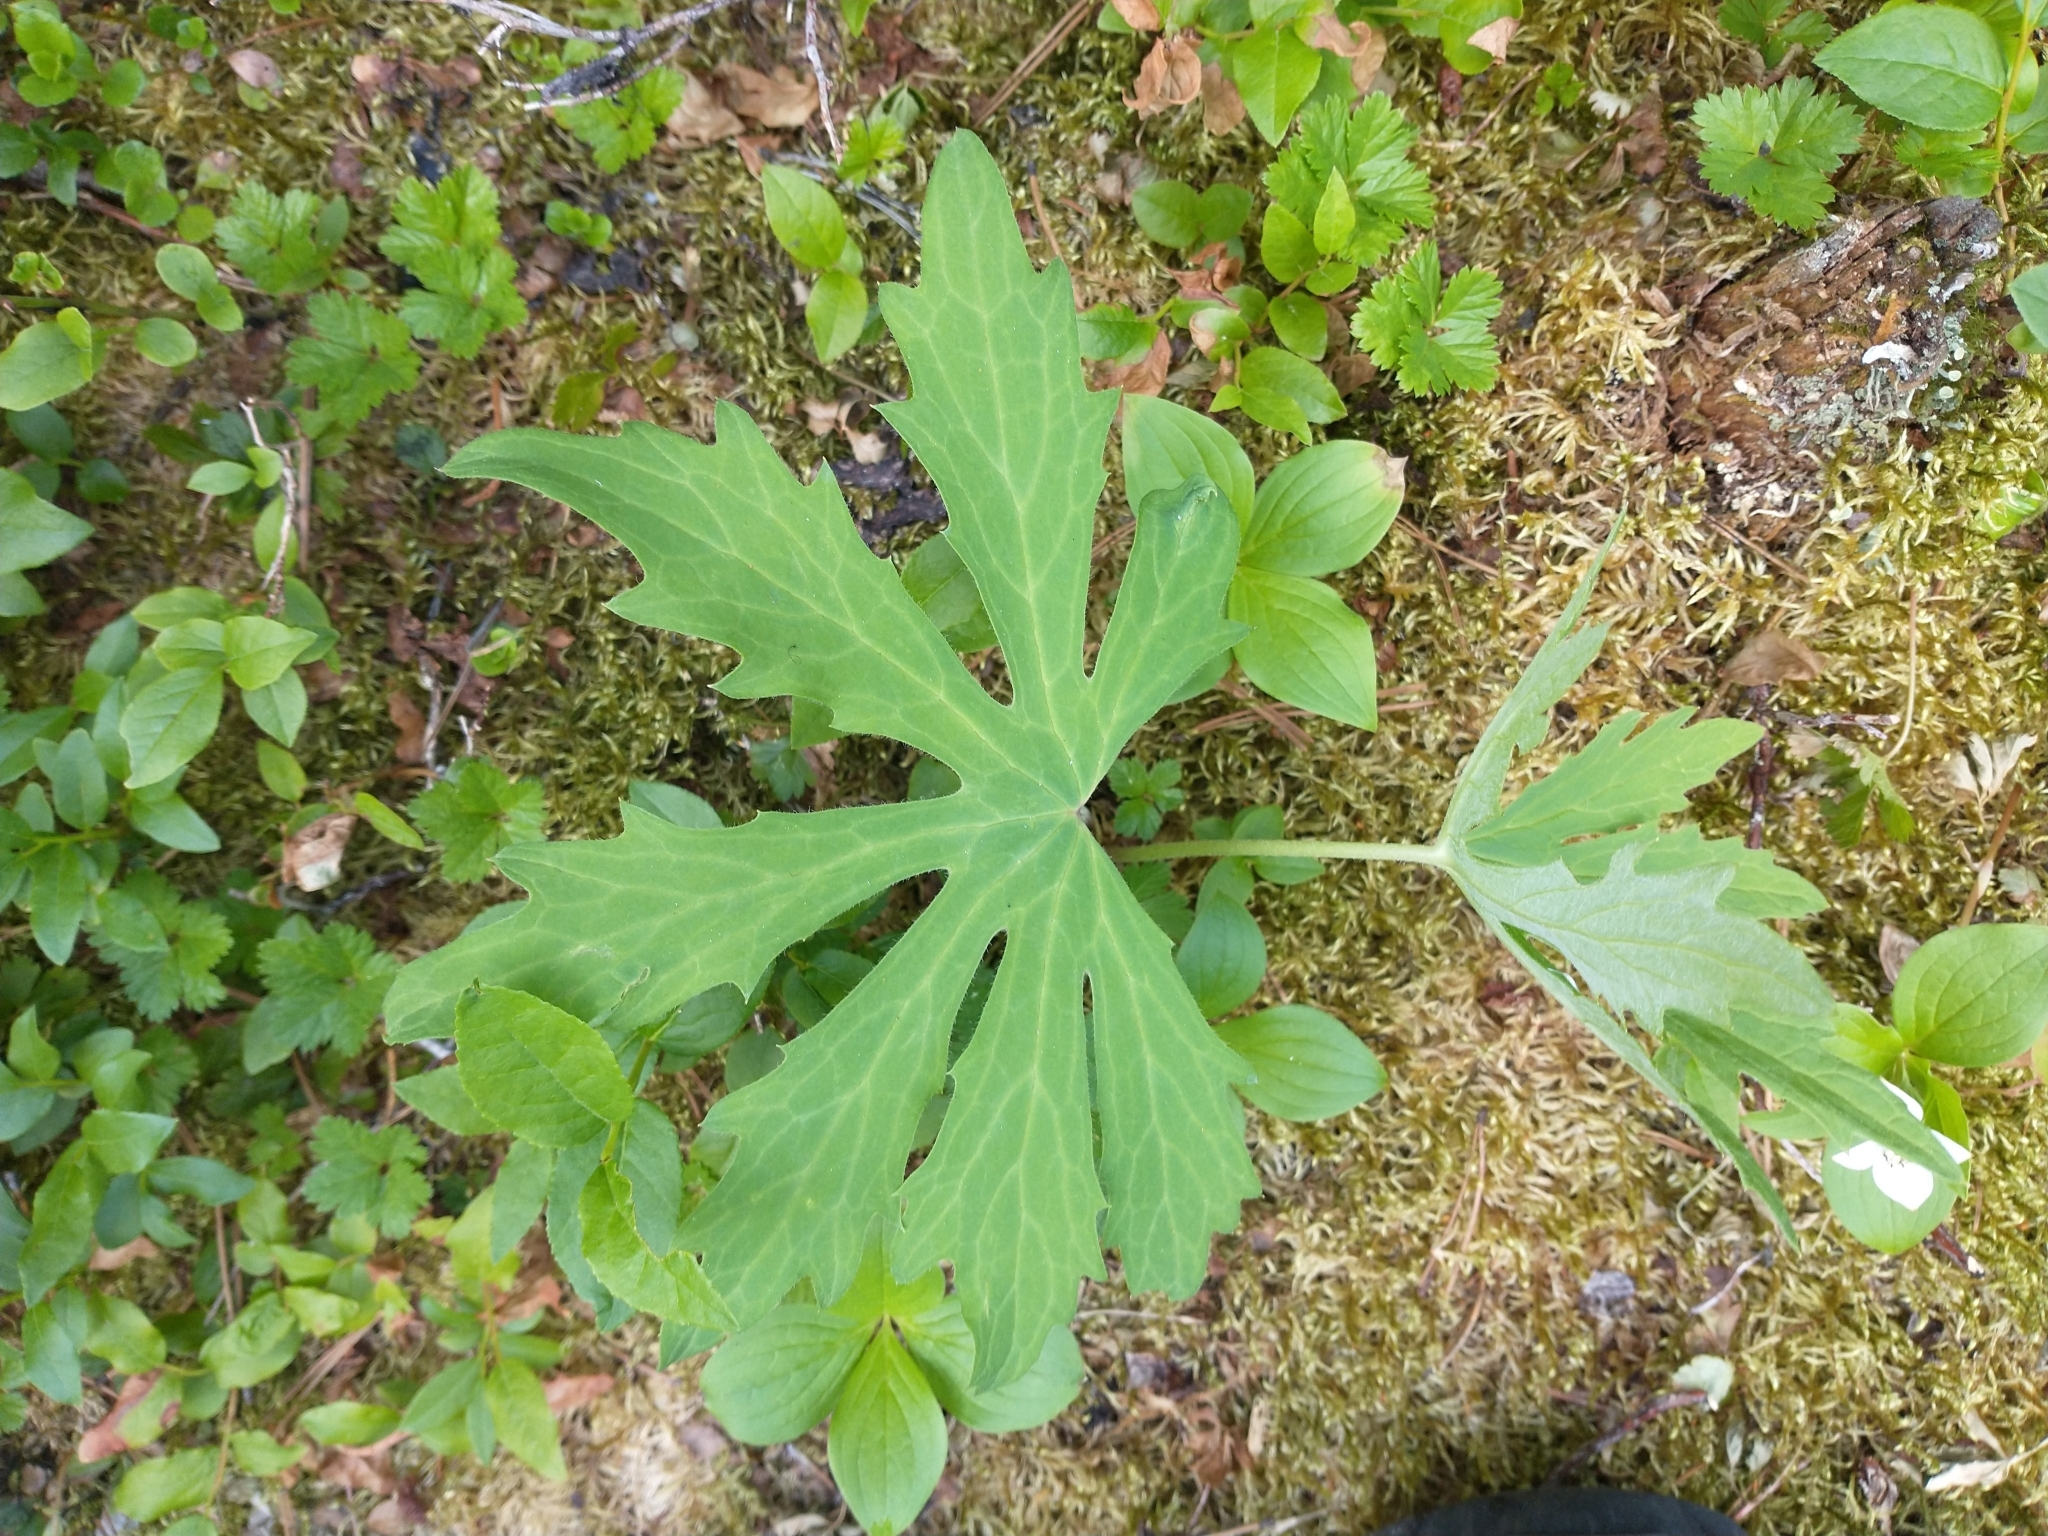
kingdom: Plantae
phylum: Tracheophyta
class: Magnoliopsida
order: Asterales
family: Asteraceae
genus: Petasites
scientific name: Petasites frigidus
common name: Arctic butterbur
